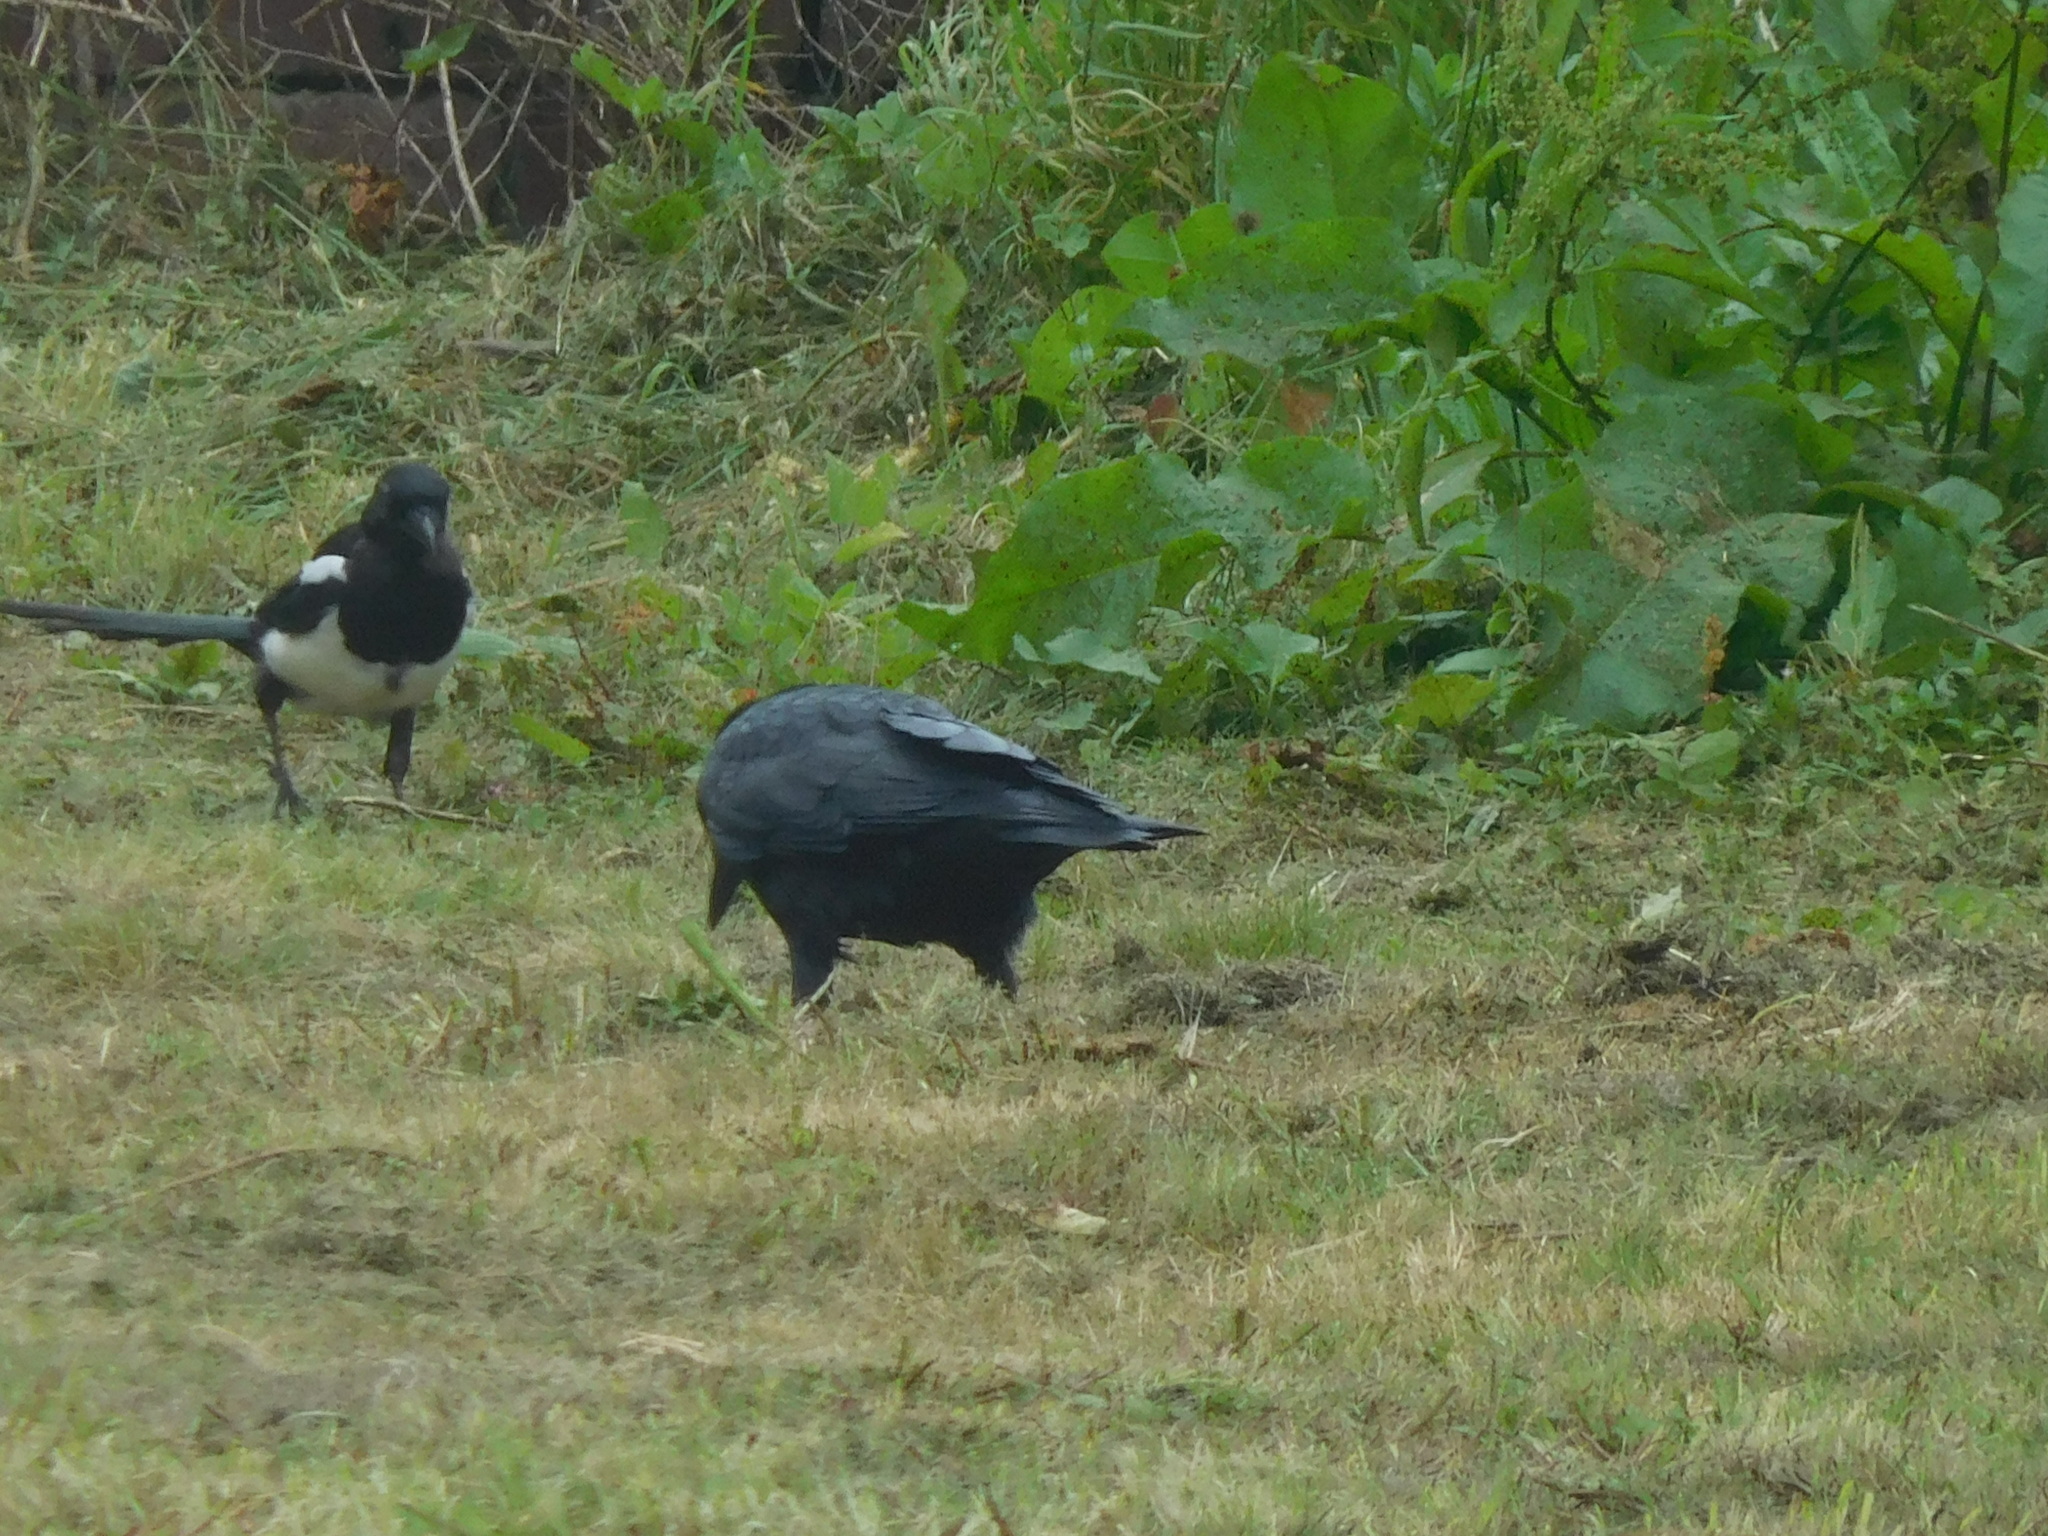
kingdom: Animalia
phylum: Chordata
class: Aves
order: Passeriformes
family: Corvidae
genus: Pica
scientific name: Pica pica
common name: Eurasian magpie
